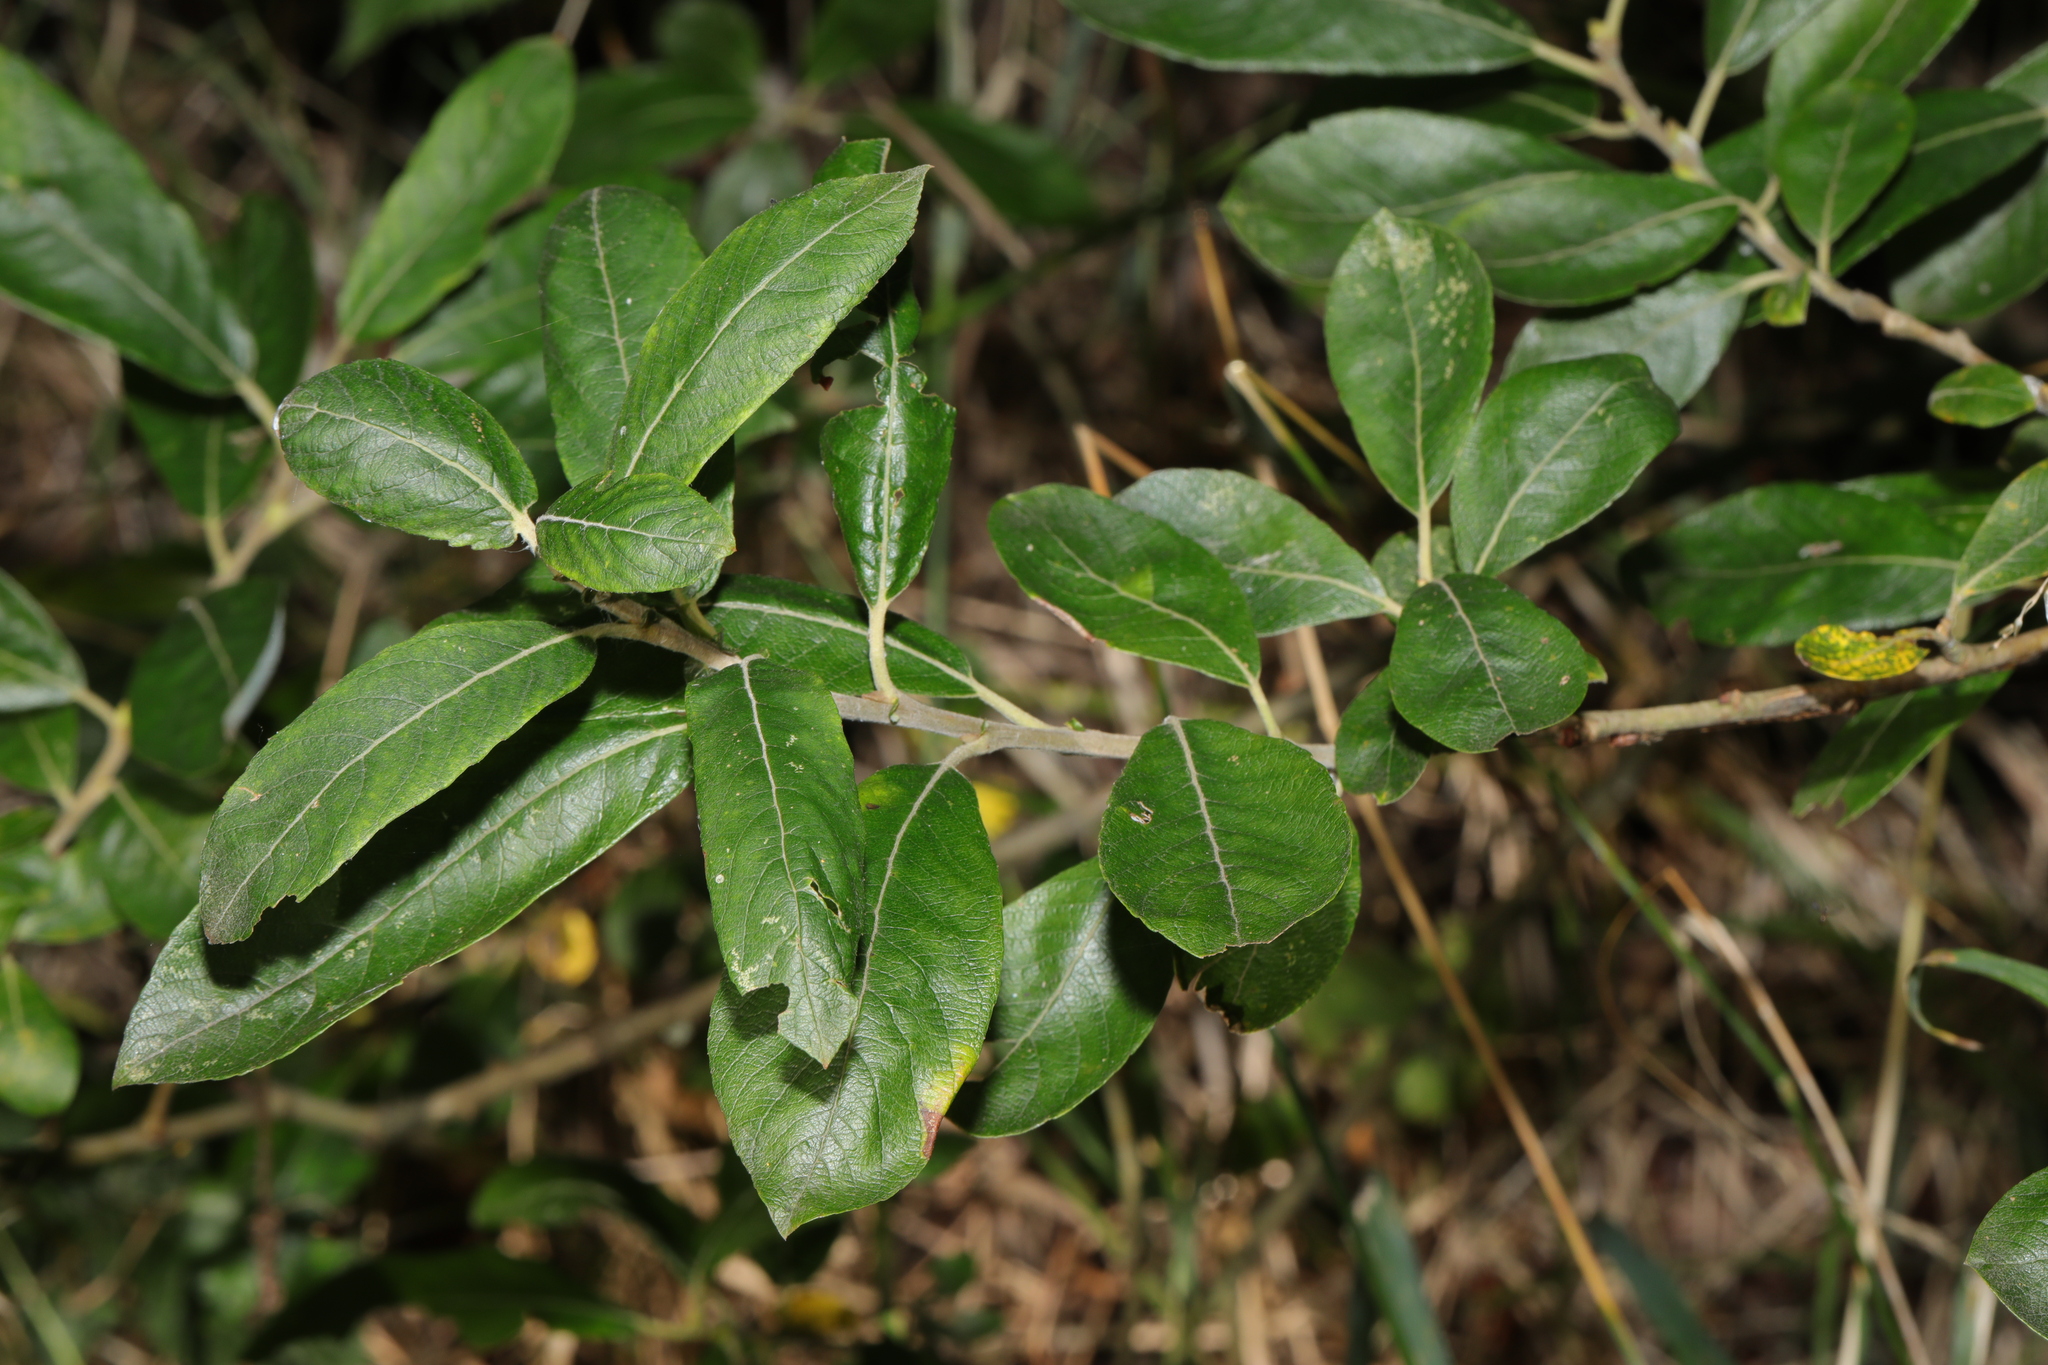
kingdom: Plantae
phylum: Tracheophyta
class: Magnoliopsida
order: Malpighiales
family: Salicaceae
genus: Salix
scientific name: Salix cinerea
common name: Common sallow
